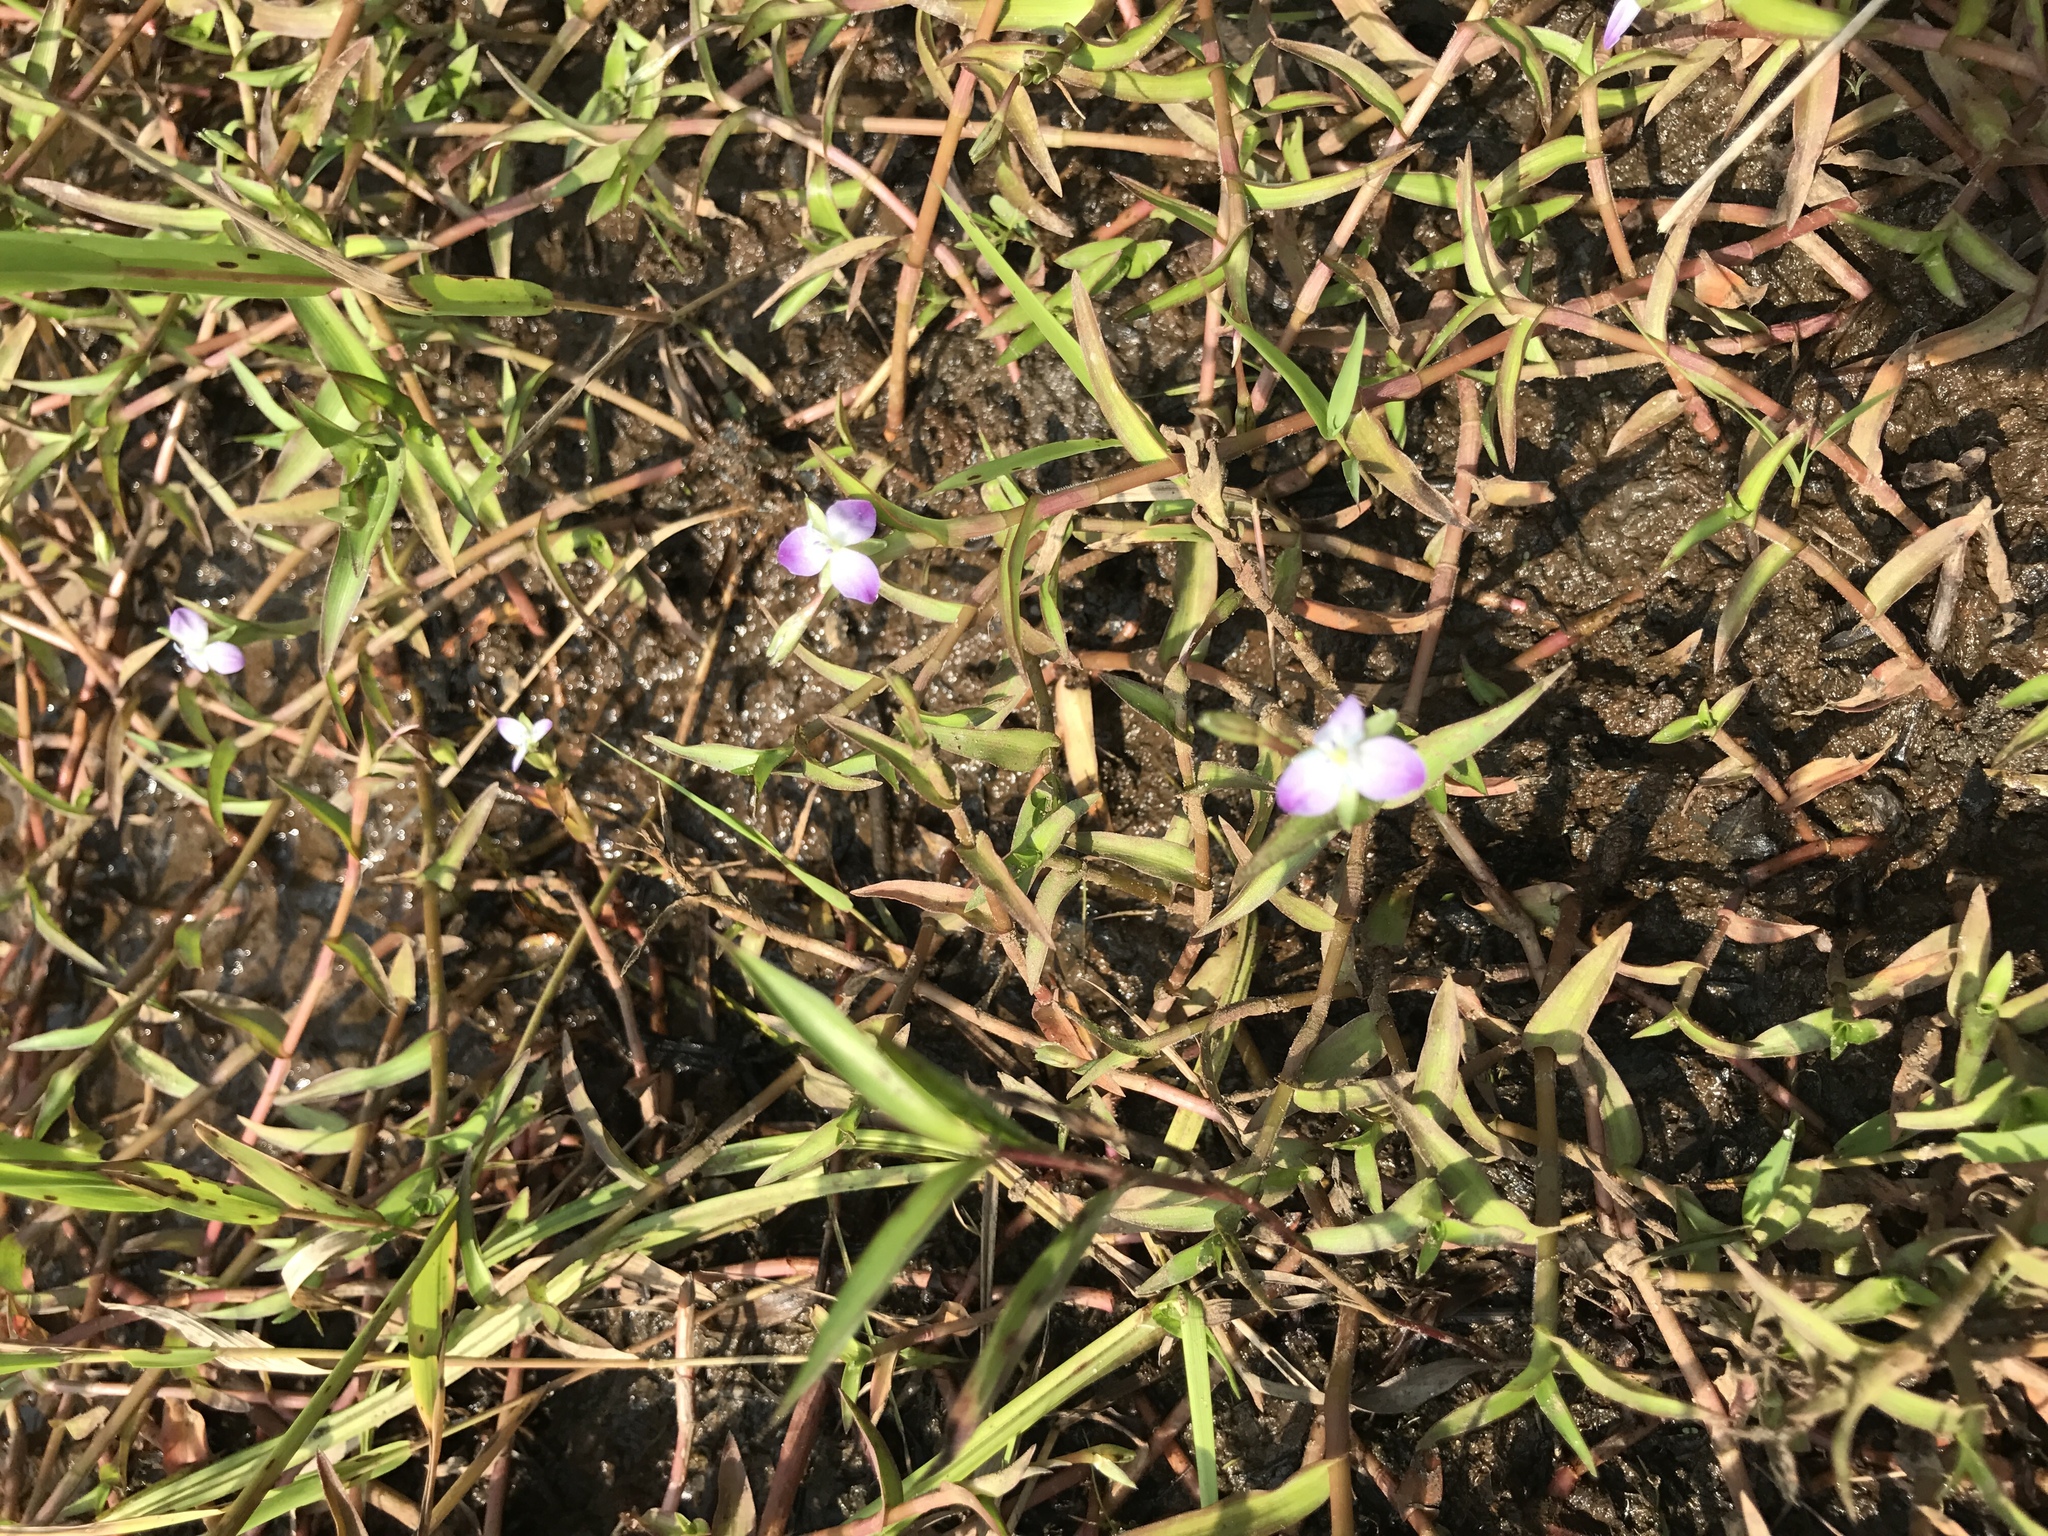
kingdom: Plantae
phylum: Tracheophyta
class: Liliopsida
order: Commelinales
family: Commelinaceae
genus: Murdannia
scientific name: Murdannia keisak
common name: Wartremoving herb
